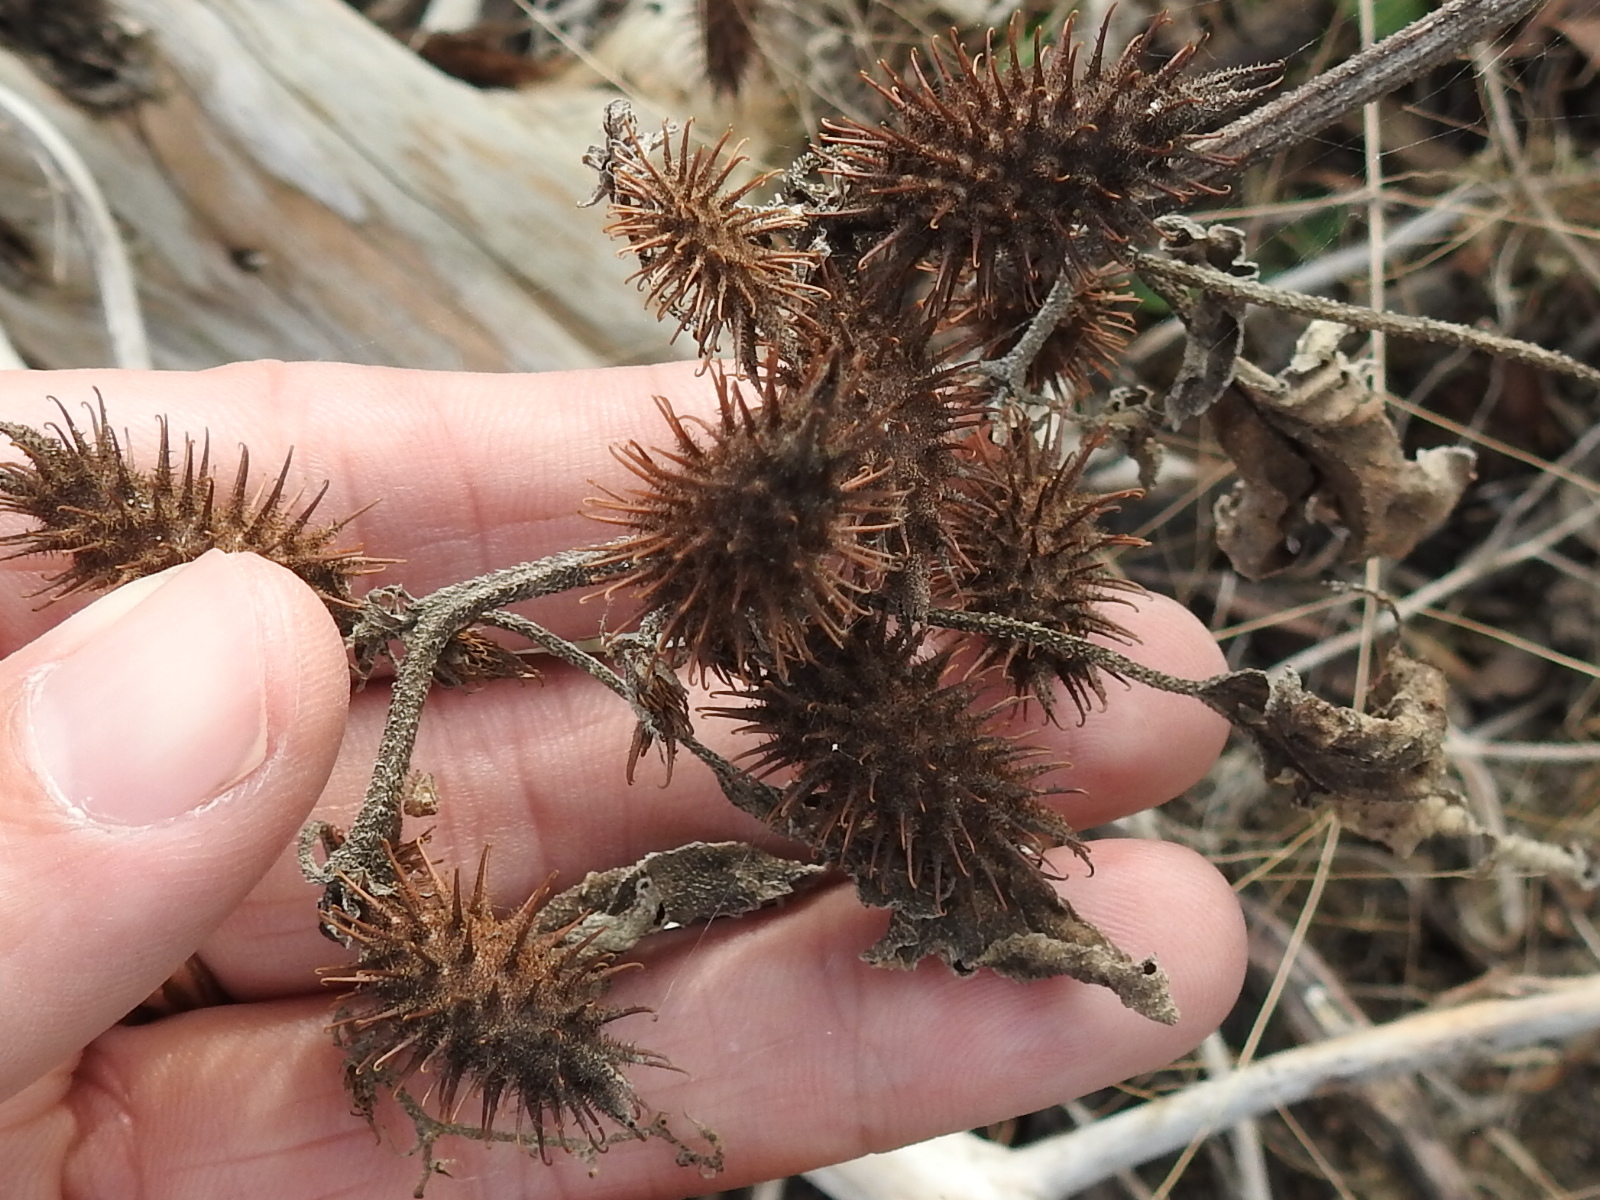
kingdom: Plantae
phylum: Tracheophyta
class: Magnoliopsida
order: Asterales
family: Asteraceae
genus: Xanthium
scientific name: Xanthium strumarium
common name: Rough cocklebur
